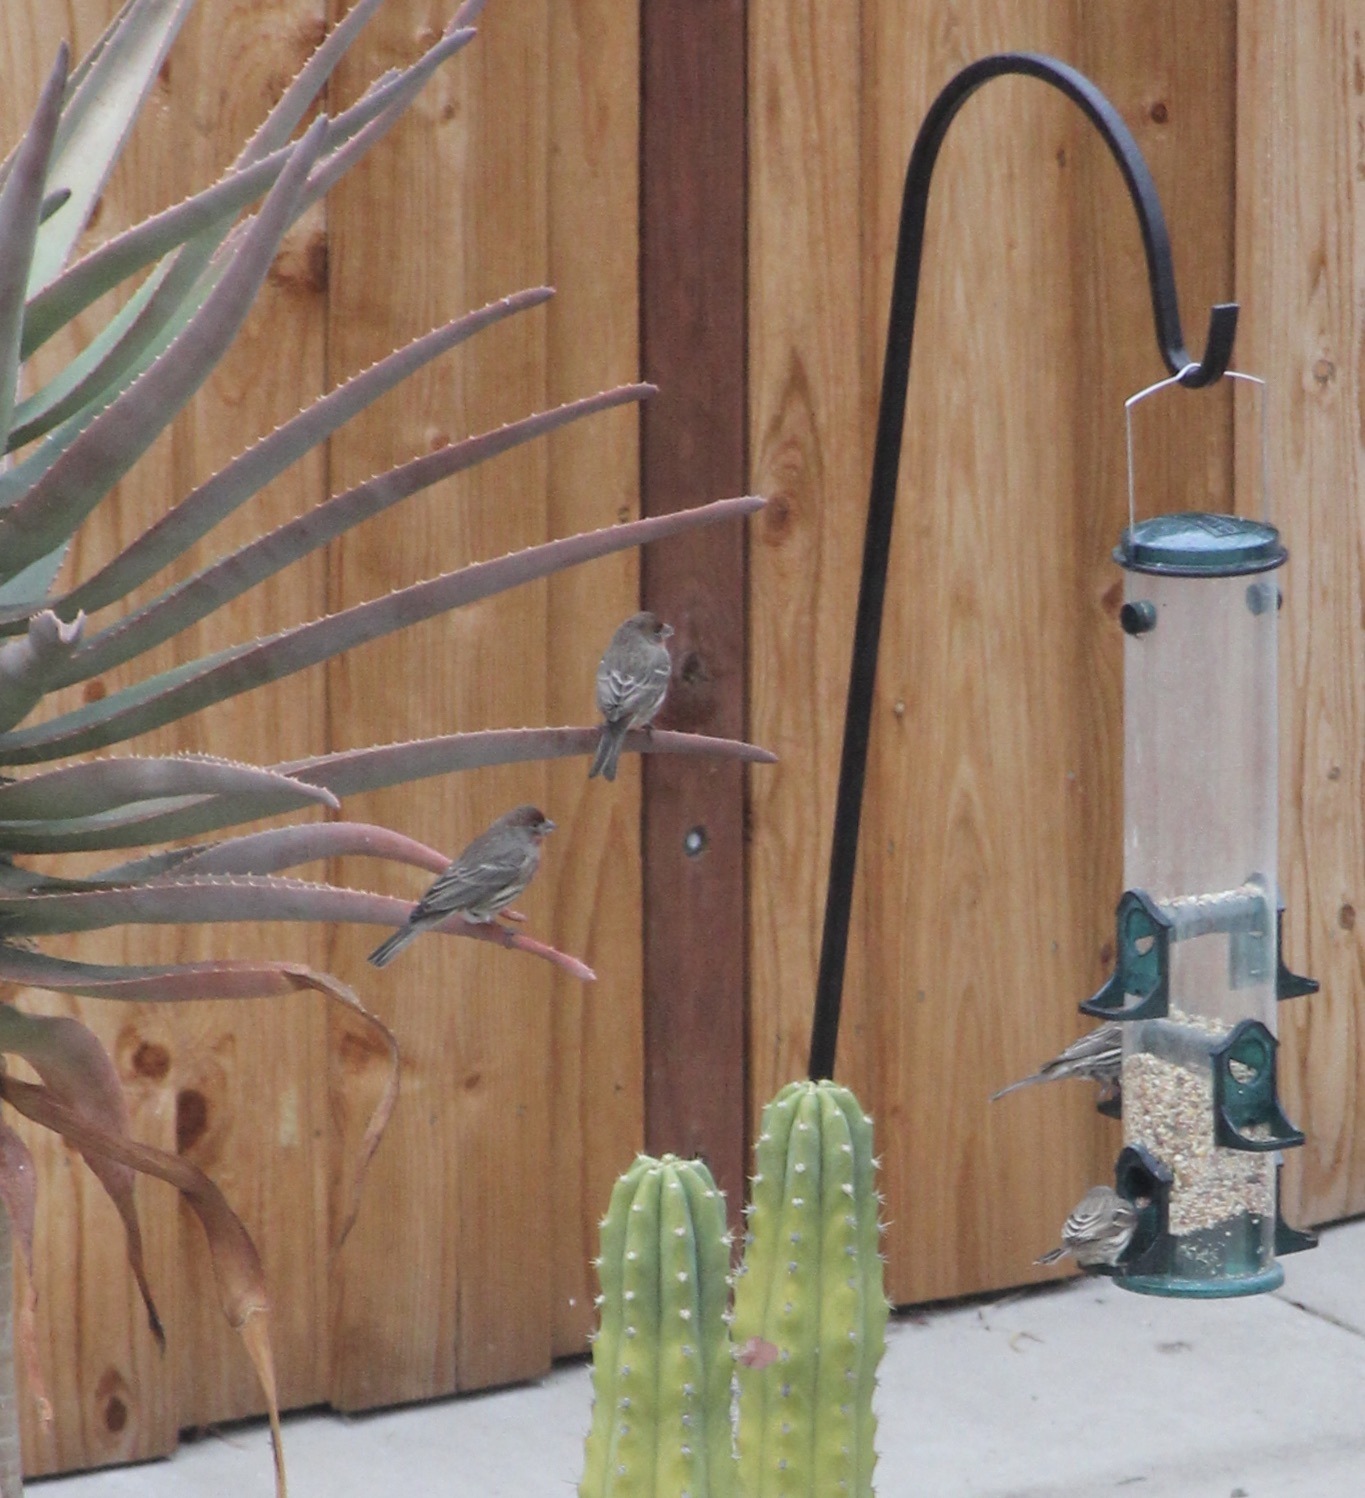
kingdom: Animalia
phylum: Chordata
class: Aves
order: Passeriformes
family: Fringillidae
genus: Haemorhous
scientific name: Haemorhous mexicanus
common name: House finch
